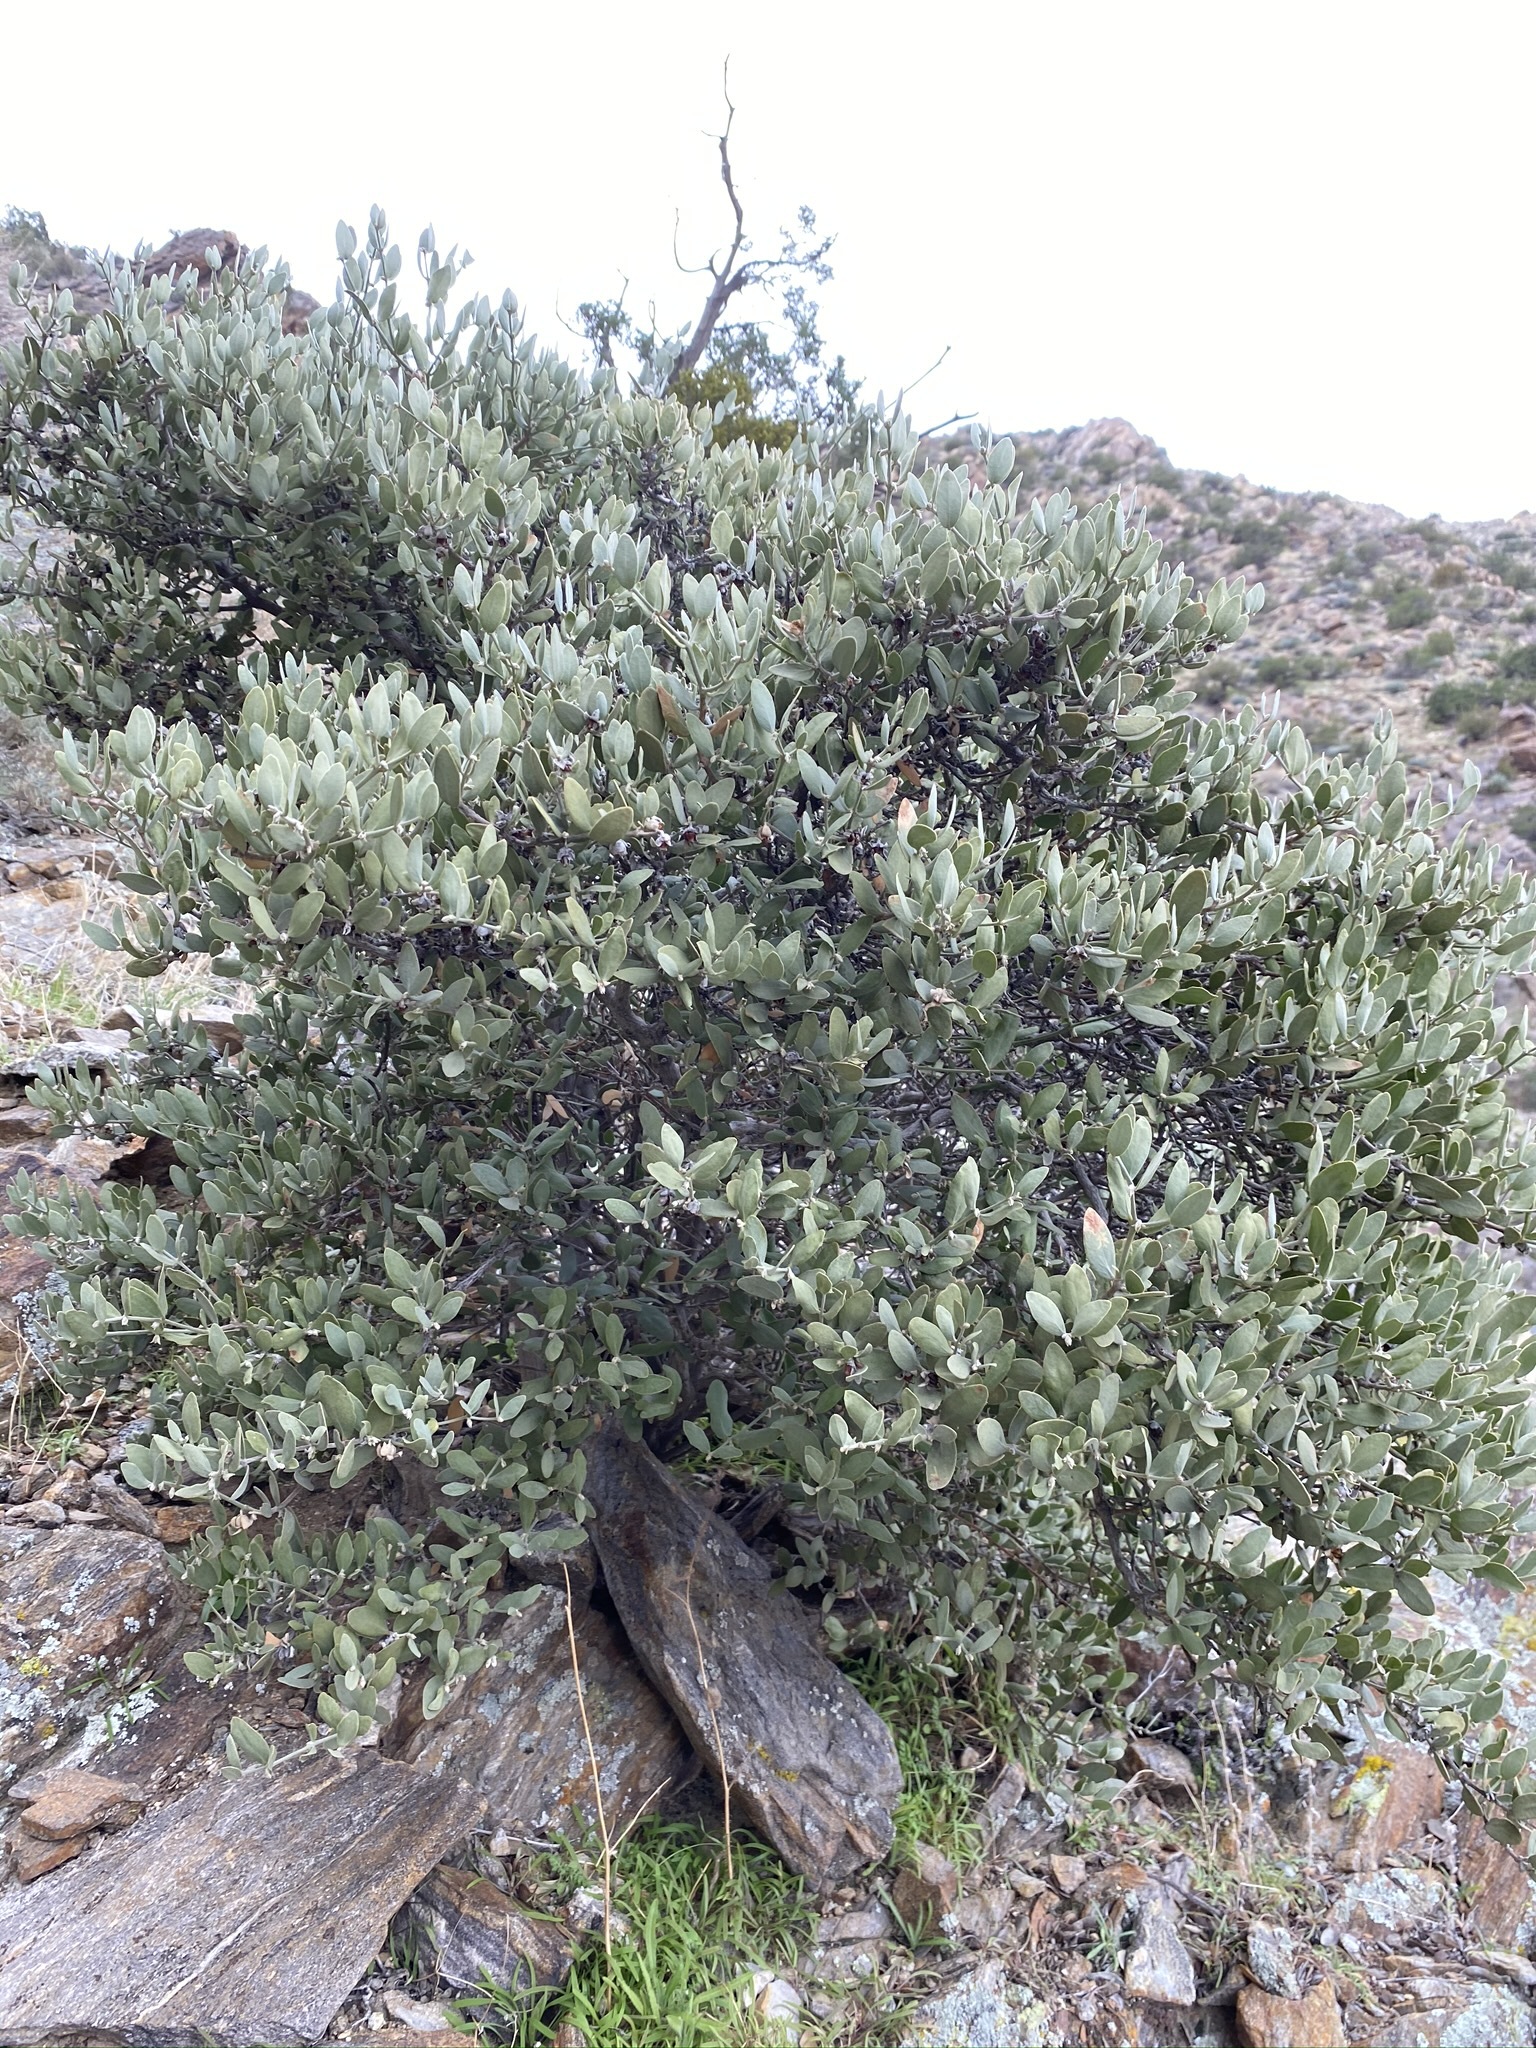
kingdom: Plantae
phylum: Tracheophyta
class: Magnoliopsida
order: Caryophyllales
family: Simmondsiaceae
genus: Simmondsia
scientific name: Simmondsia chinensis
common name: Jojoba
